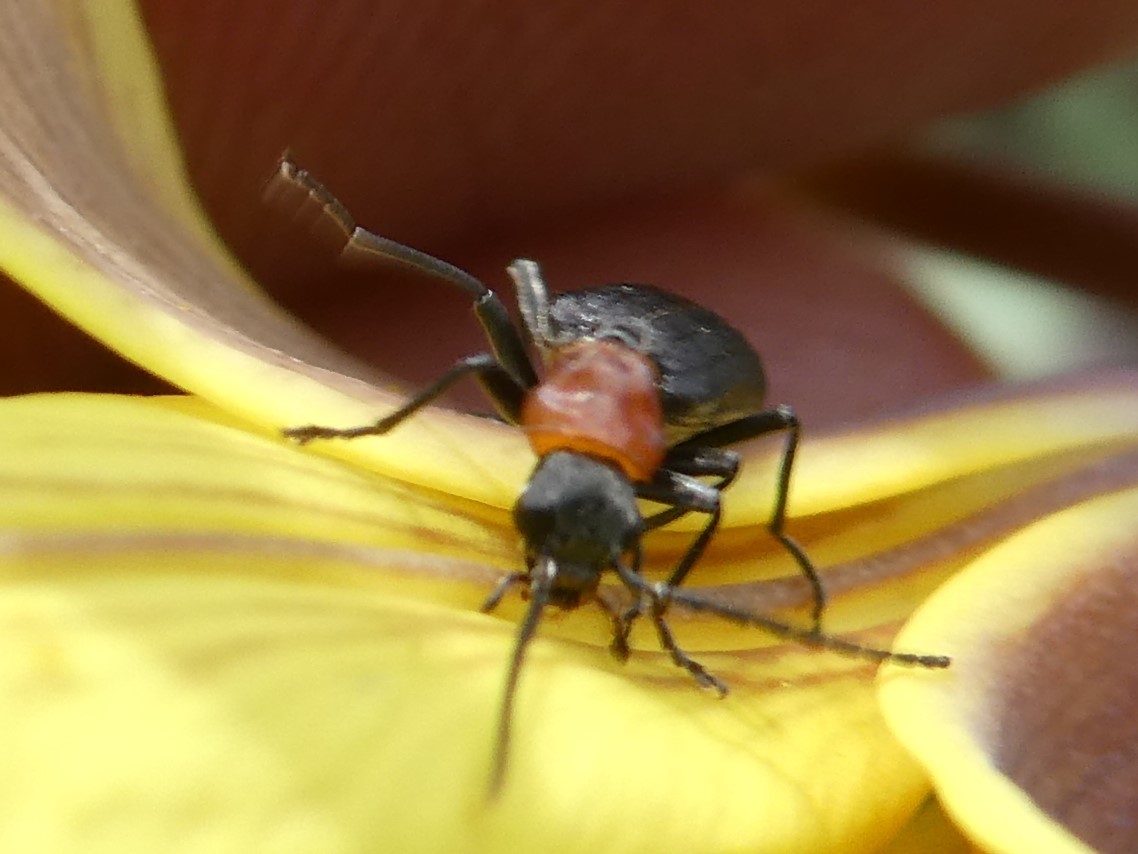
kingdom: Animalia
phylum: Arthropoda
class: Insecta
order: Coleoptera
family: Oedemeridae
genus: Ischnomera
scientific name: Ischnomera
